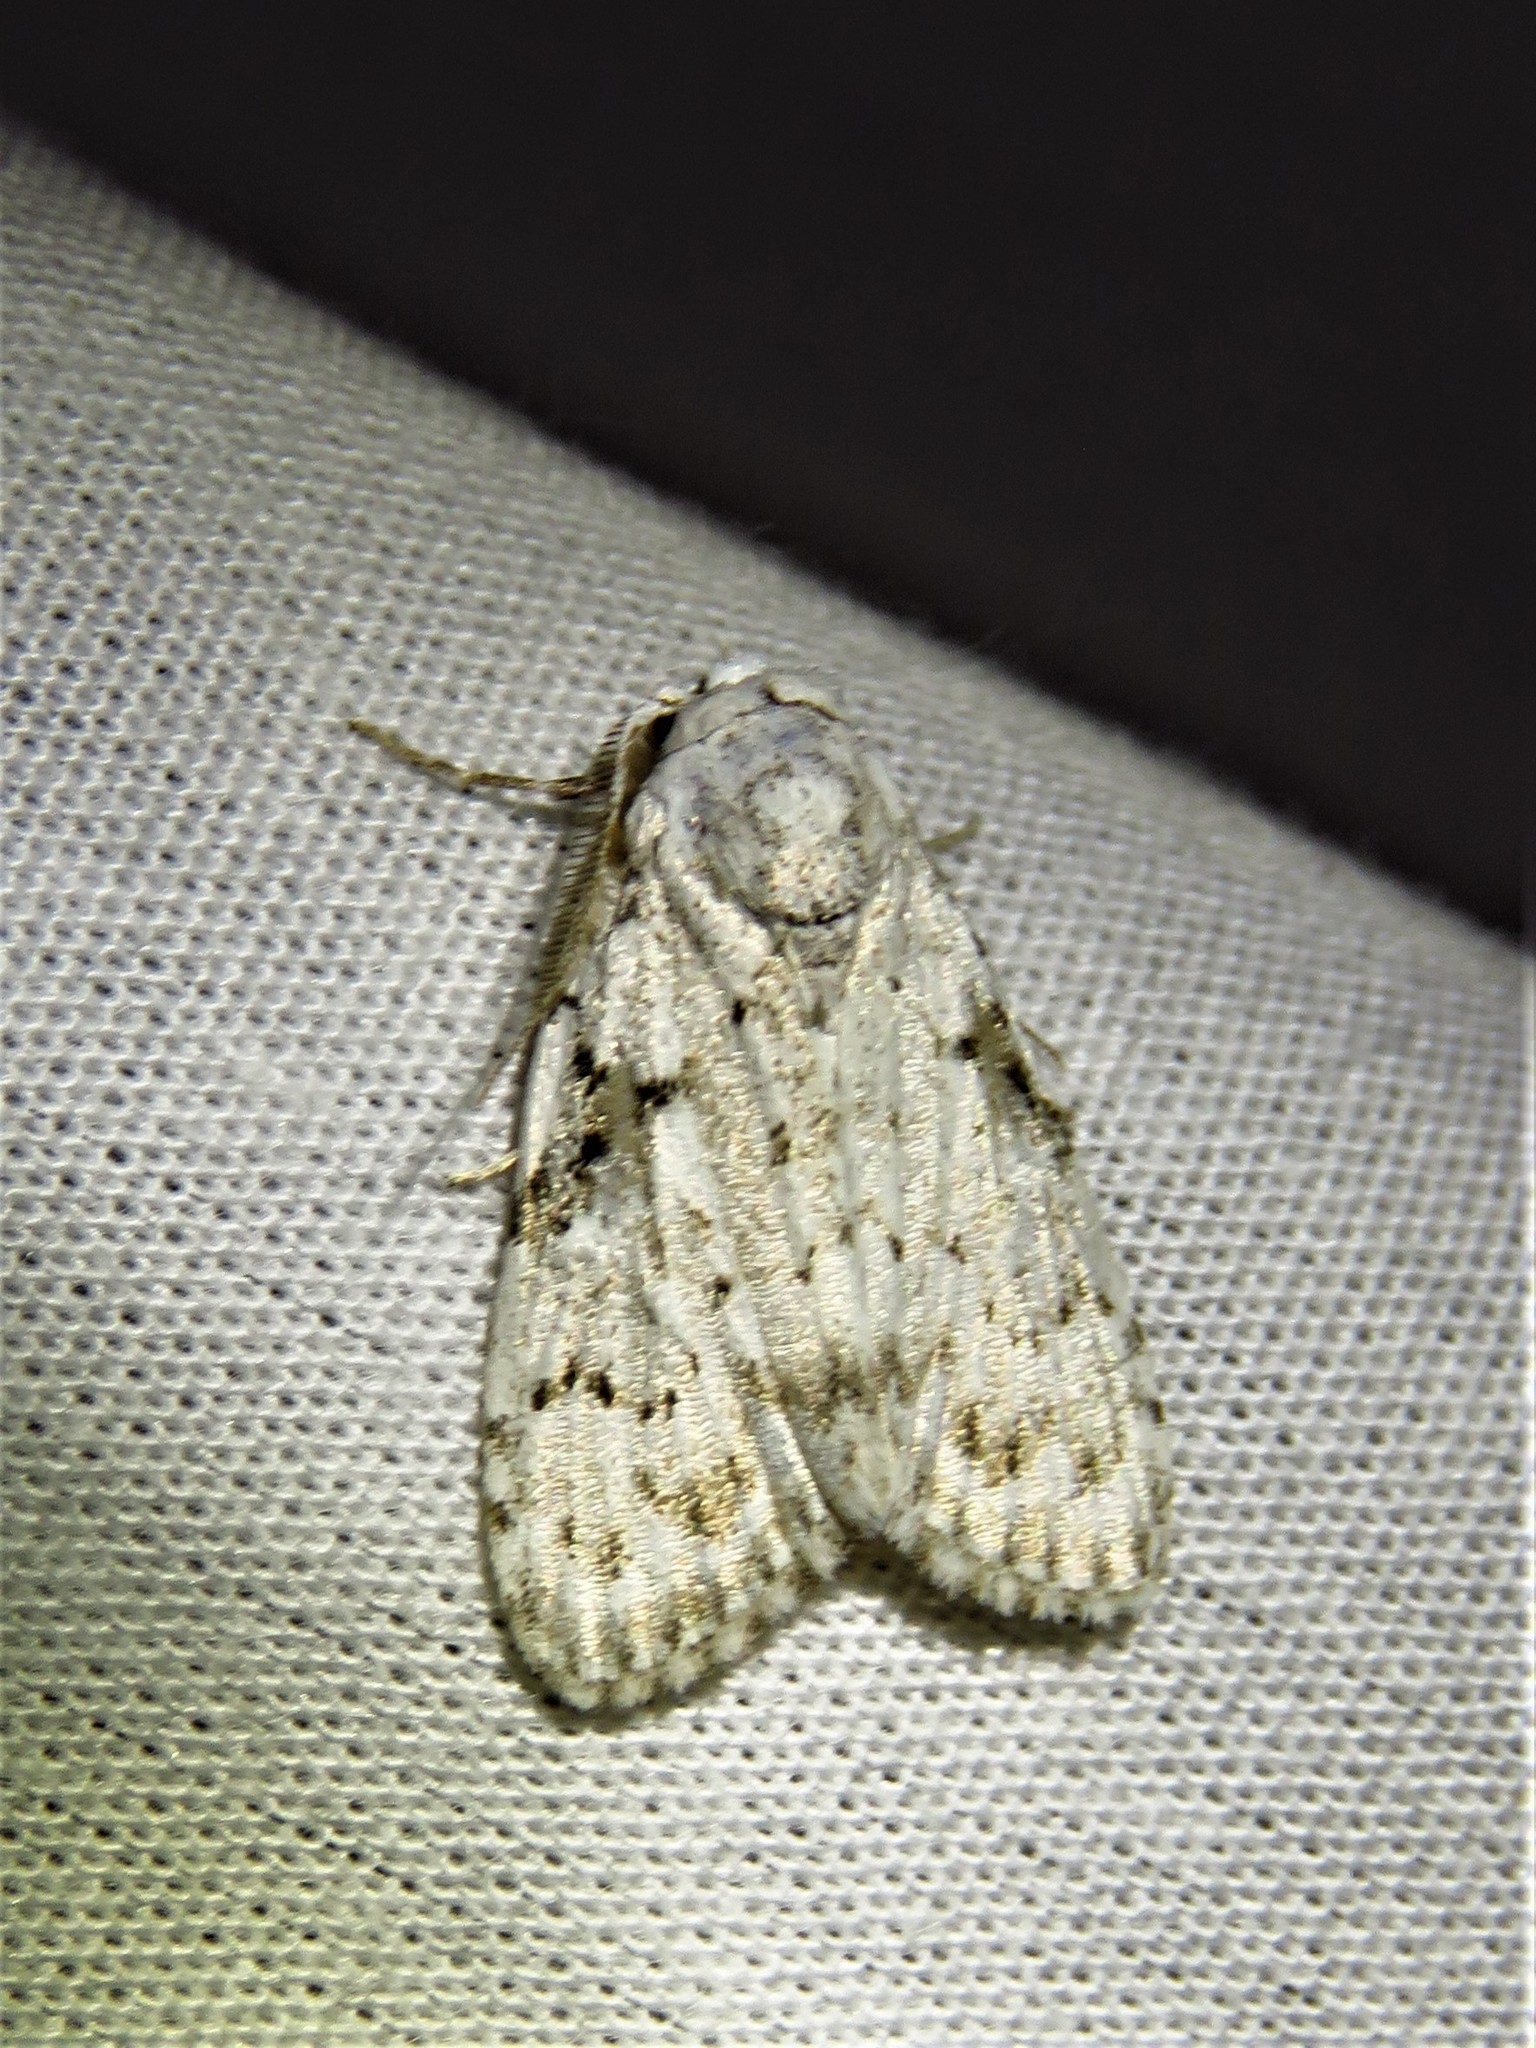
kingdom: Animalia
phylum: Arthropoda
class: Insecta
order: Lepidoptera
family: Nolidae
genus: Nola
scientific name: Nola melanosticta
